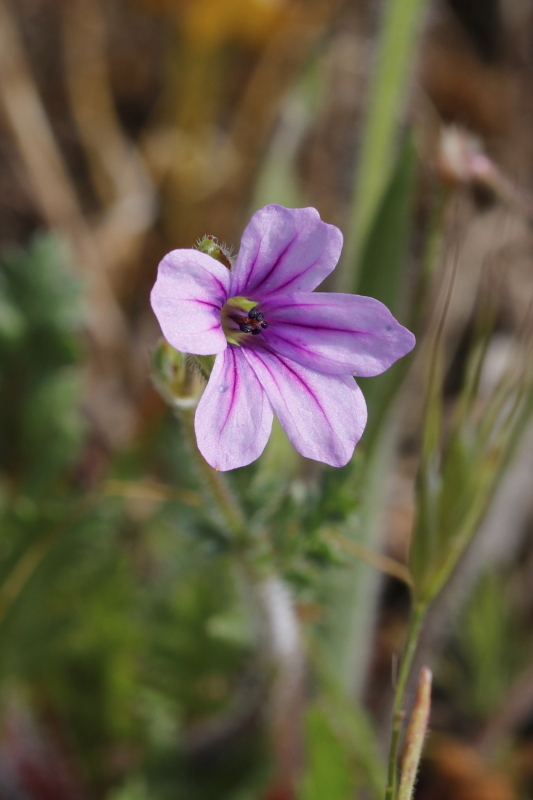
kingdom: Plantae
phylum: Tracheophyta
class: Magnoliopsida
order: Geraniales
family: Geraniaceae
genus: Erodium
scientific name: Erodium botrys
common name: Mediterranean stork's-bill
